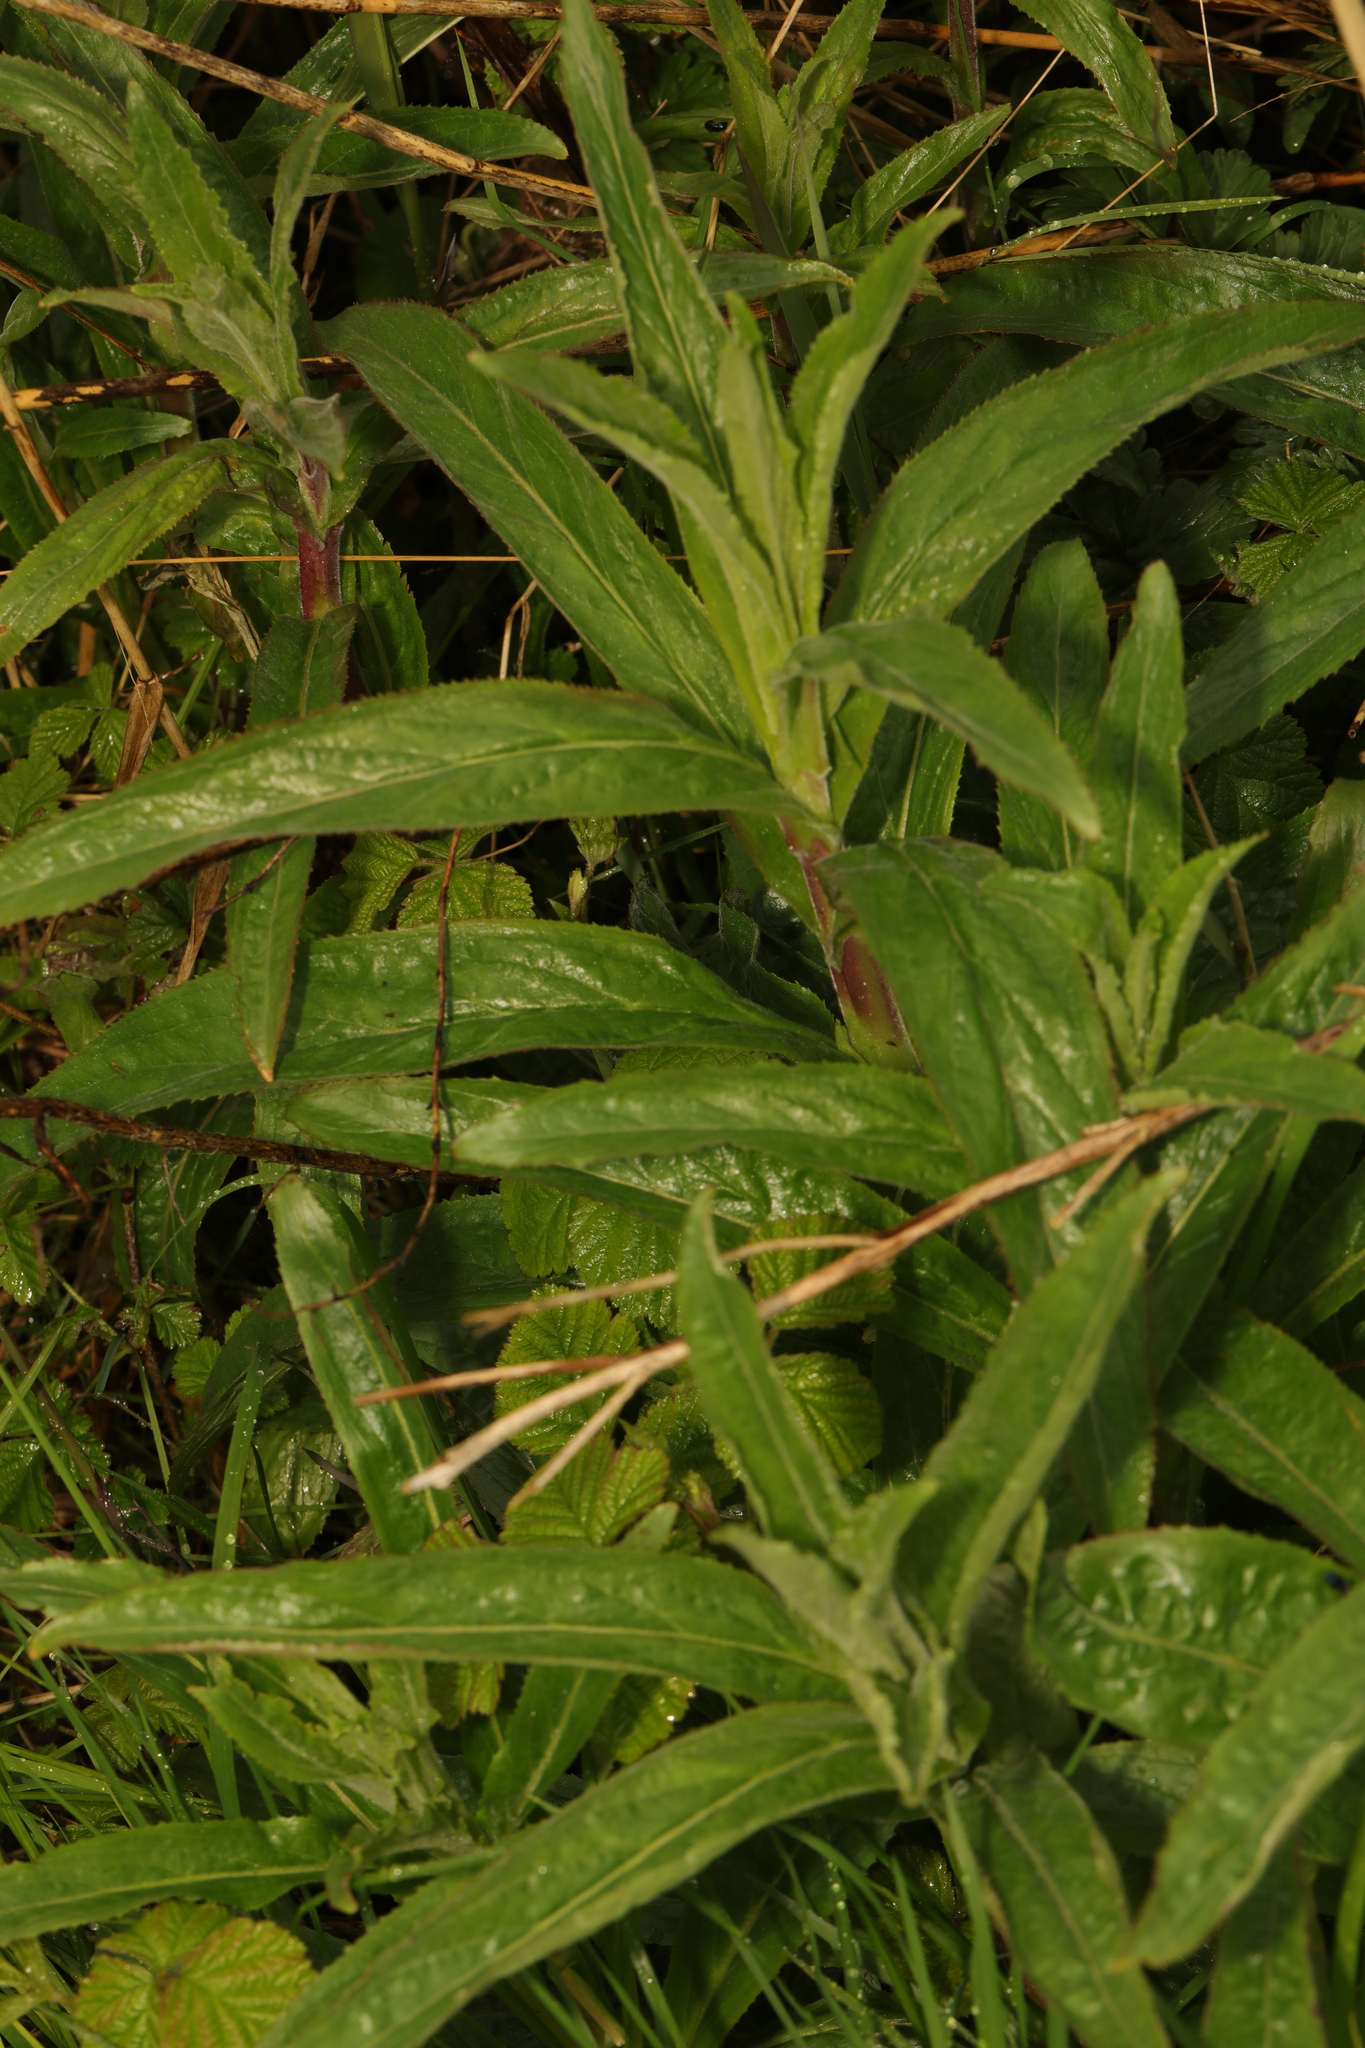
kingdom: Plantae
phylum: Tracheophyta
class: Magnoliopsida
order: Myrtales
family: Onagraceae
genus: Epilobium
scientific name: Epilobium hirsutum
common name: Great willowherb
